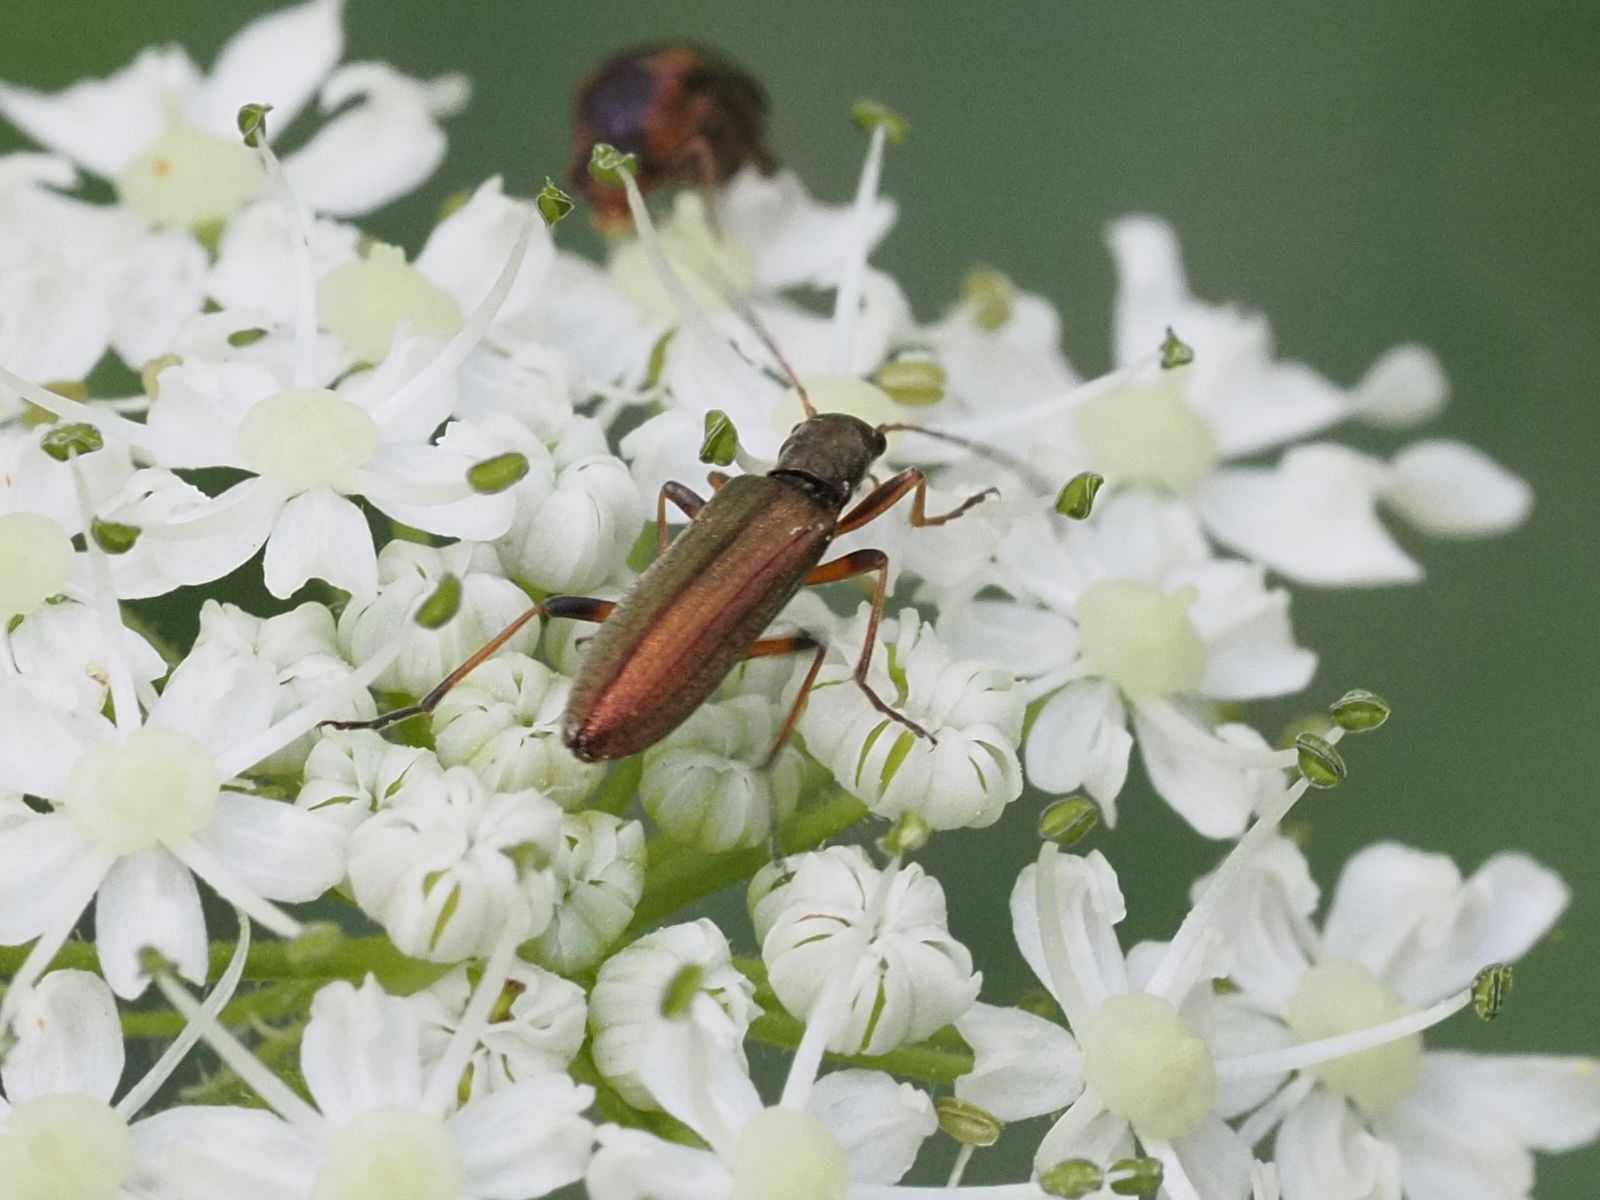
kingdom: Animalia
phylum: Arthropoda
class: Insecta
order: Coleoptera
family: Oedemeridae
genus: Chrysanthia
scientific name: Chrysanthia geniculata
